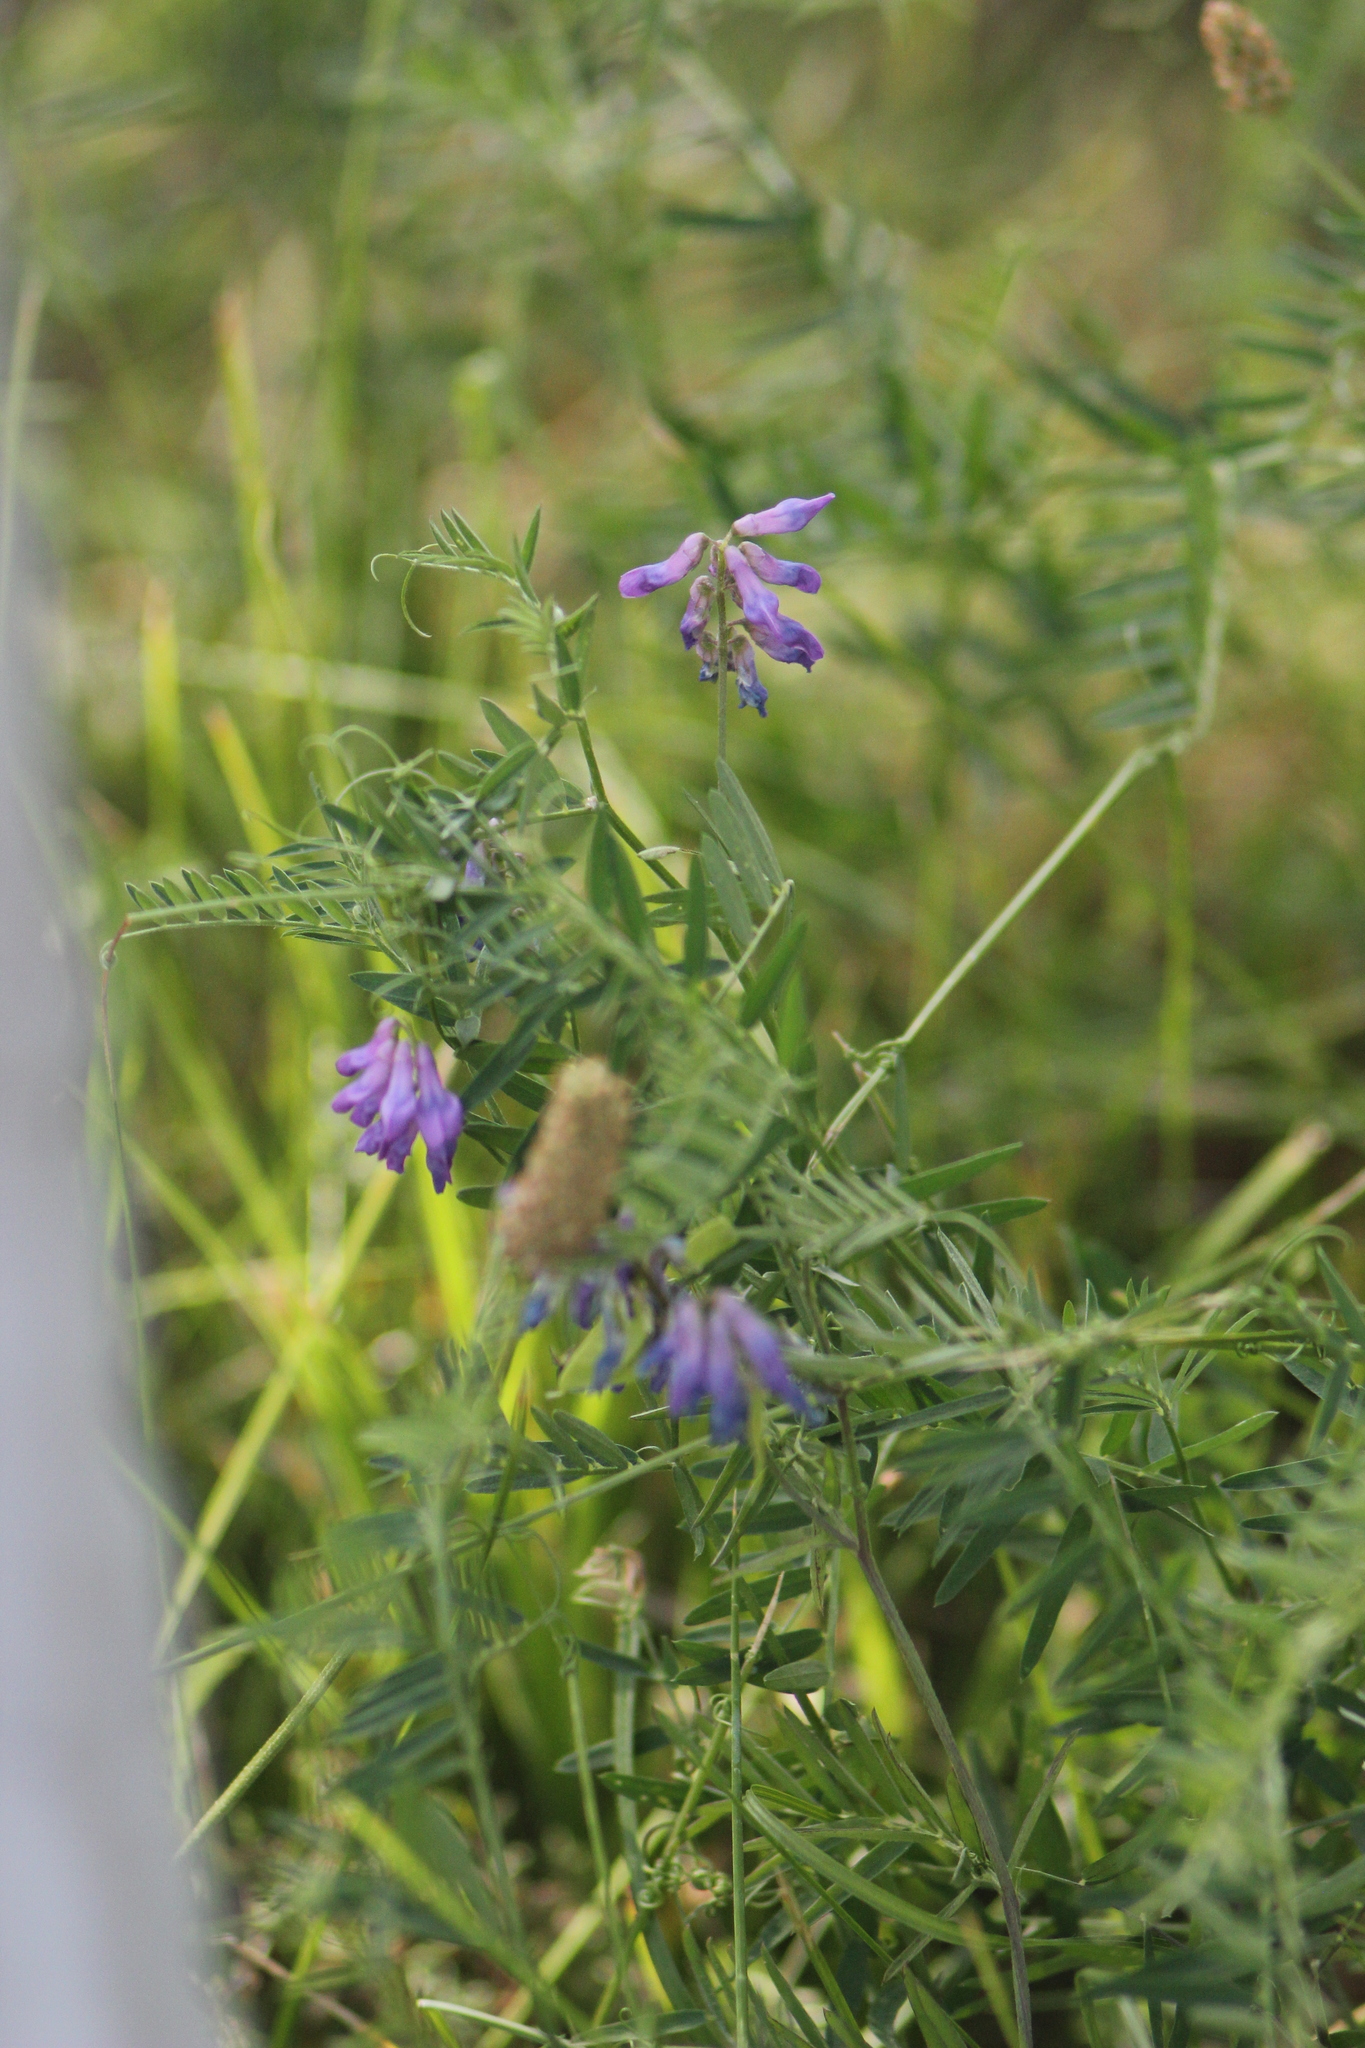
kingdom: Plantae
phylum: Tracheophyta
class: Magnoliopsida
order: Fabales
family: Fabaceae
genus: Vicia
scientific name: Vicia cracca
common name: Bird vetch
